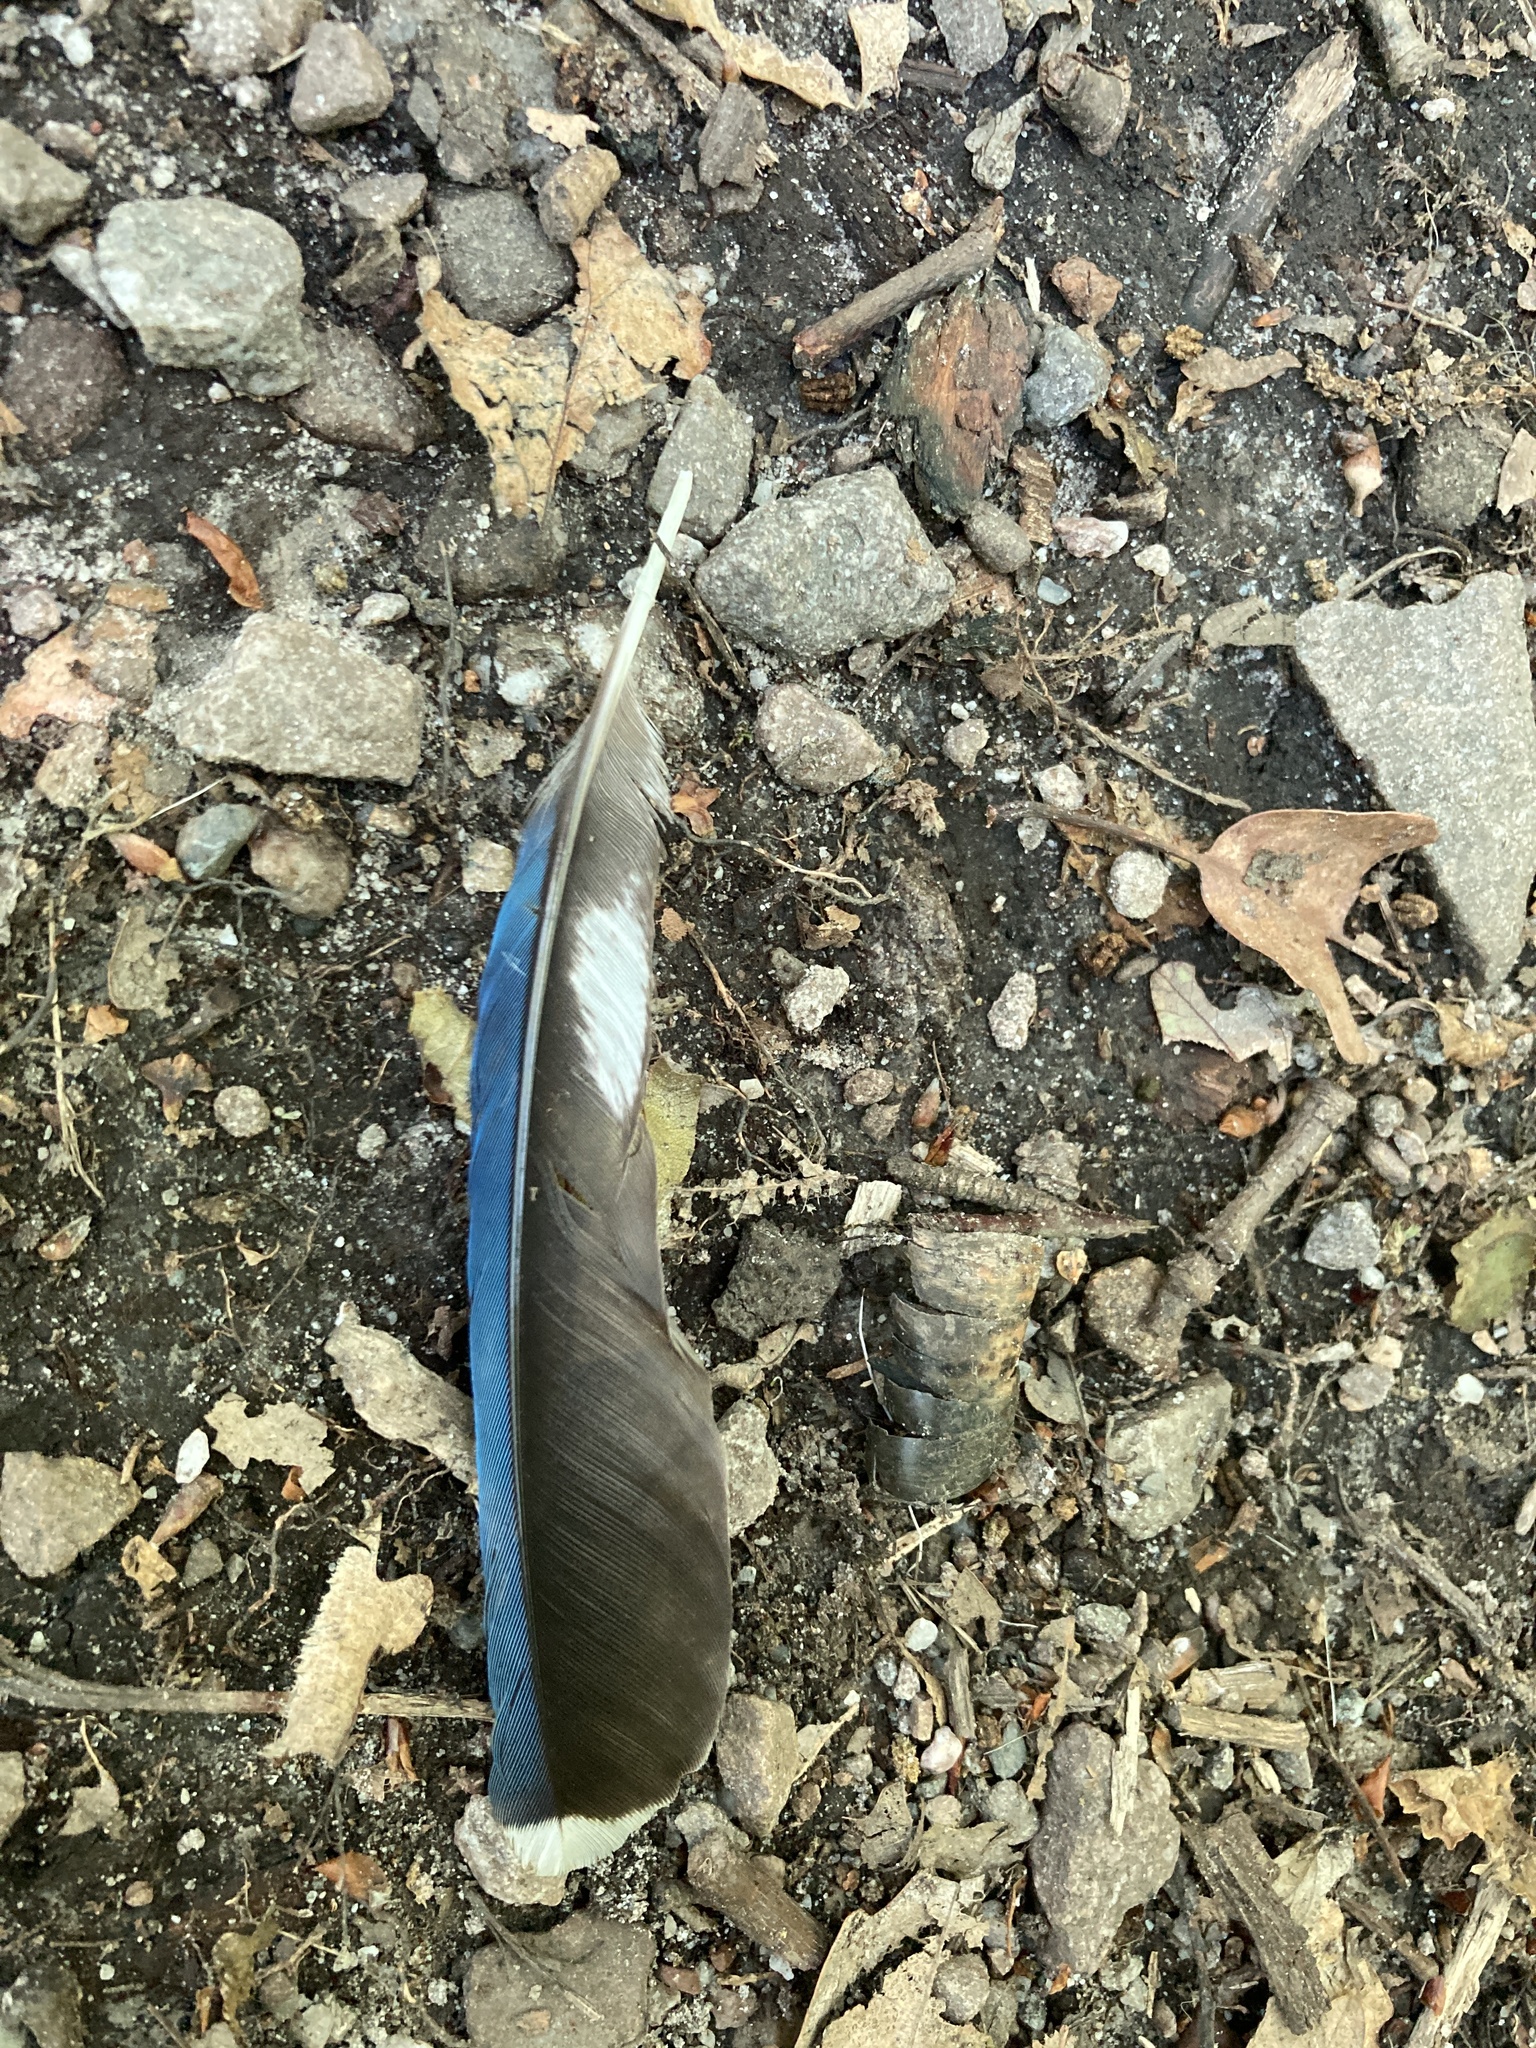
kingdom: Animalia
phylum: Chordata
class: Aves
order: Passeriformes
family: Corvidae
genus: Cyanocitta
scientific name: Cyanocitta cristata
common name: Blue jay
